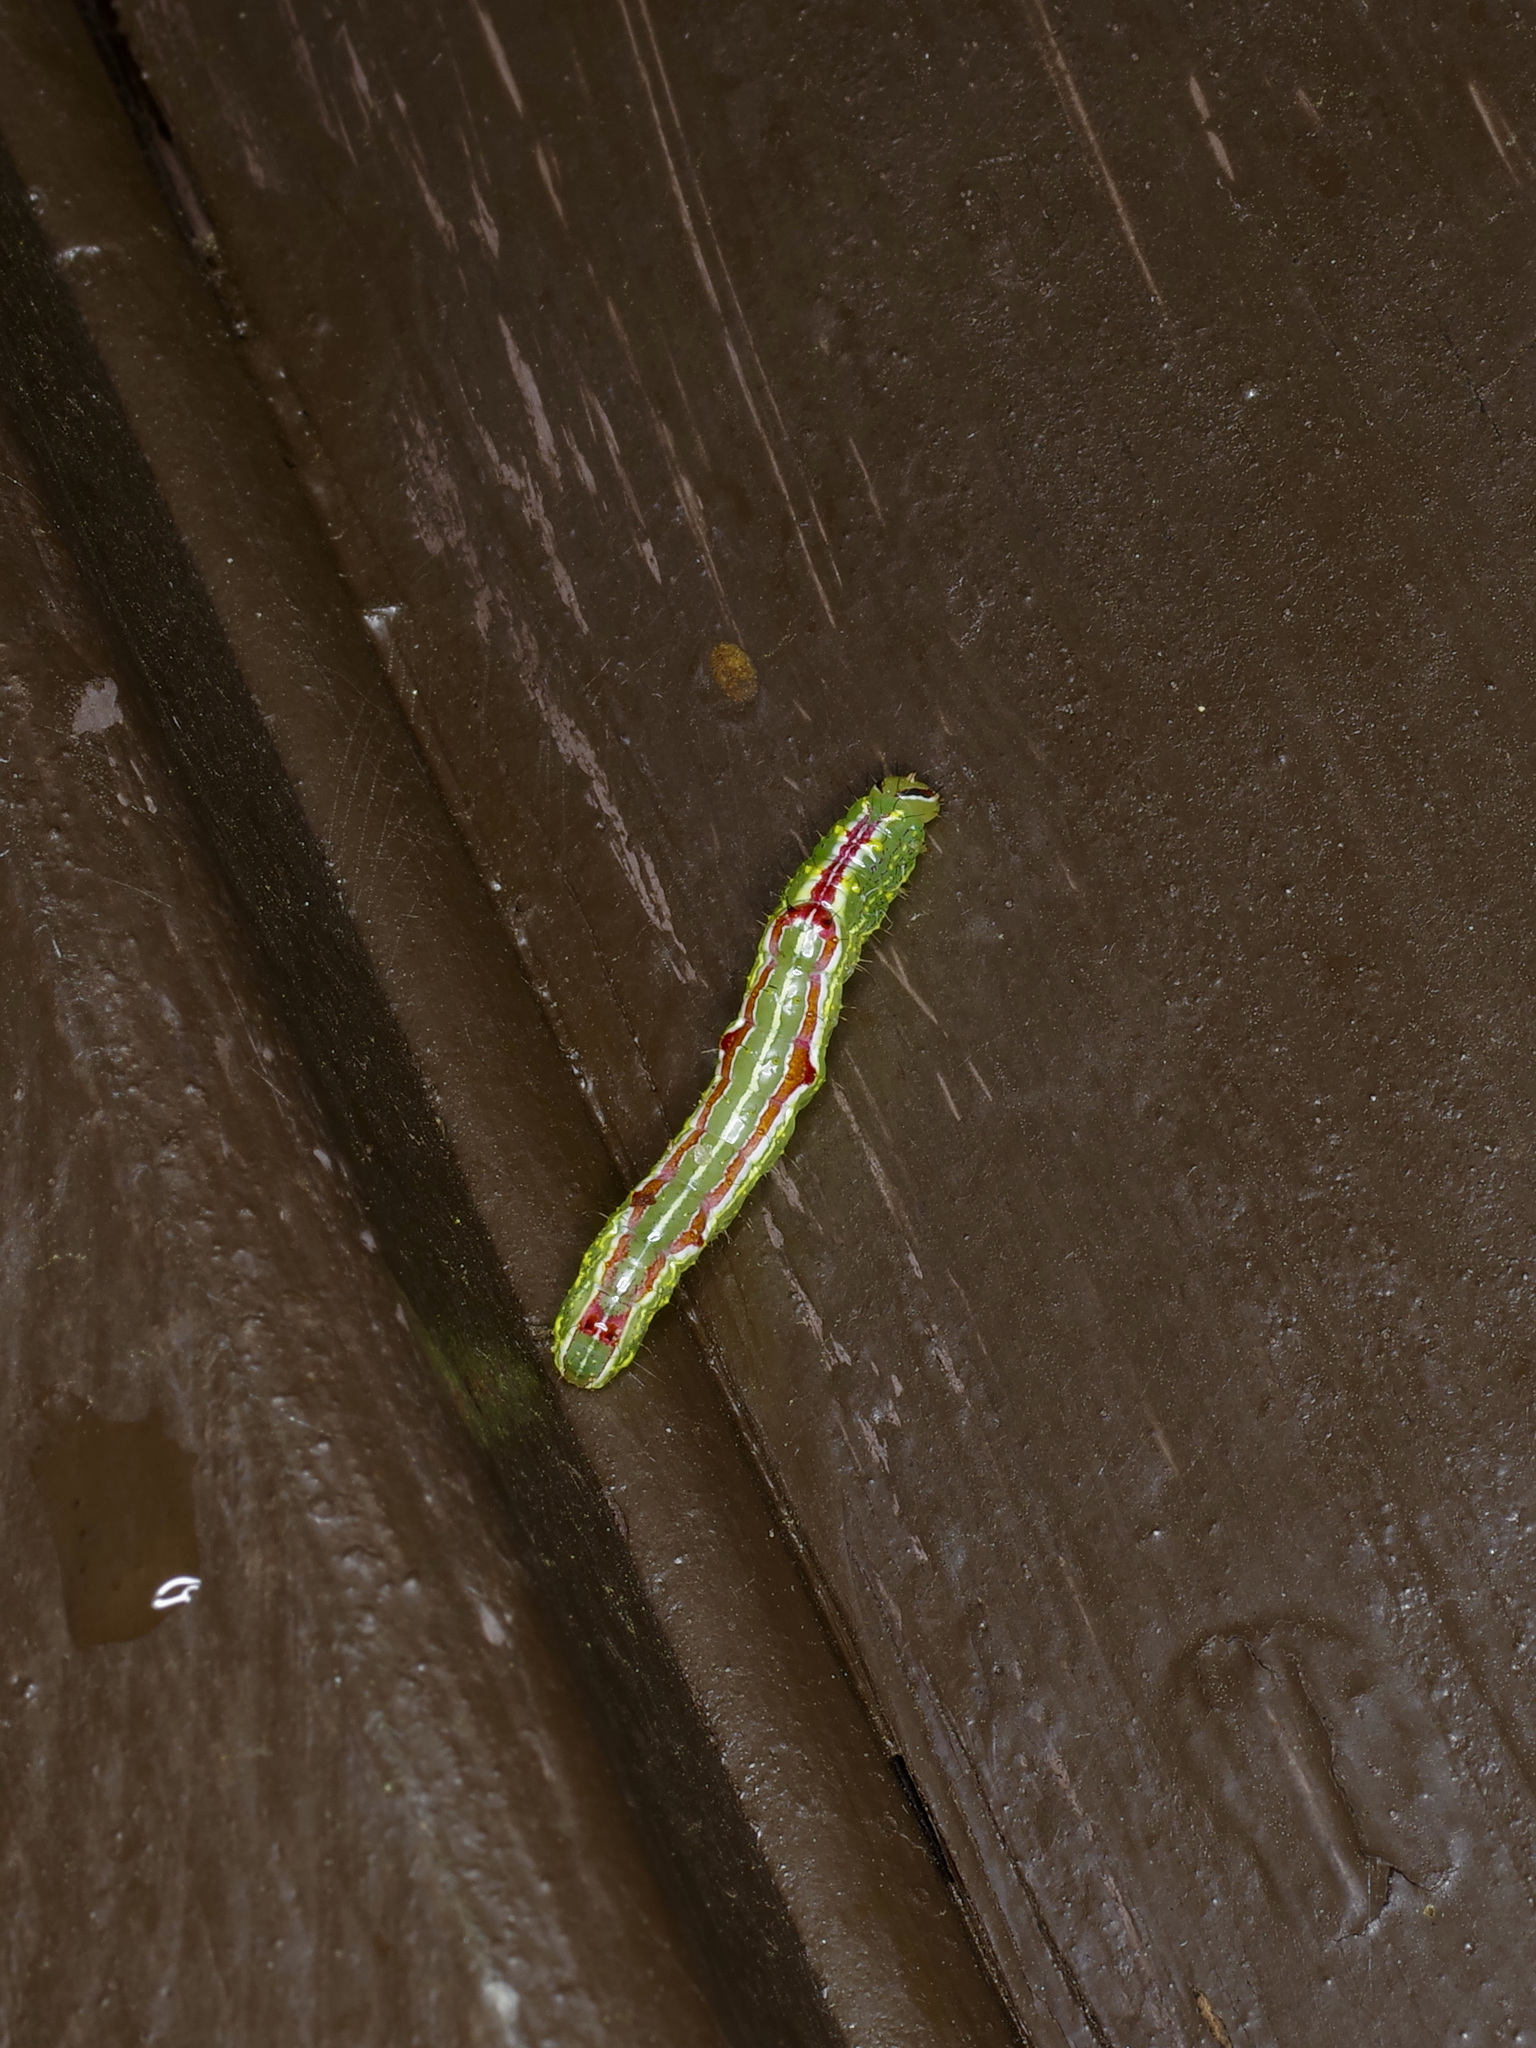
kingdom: Animalia
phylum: Arthropoda
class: Insecta
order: Lepidoptera
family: Notodontidae
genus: Lochmaeus
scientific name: Lochmaeus bilineata
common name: Double-lined prominent
